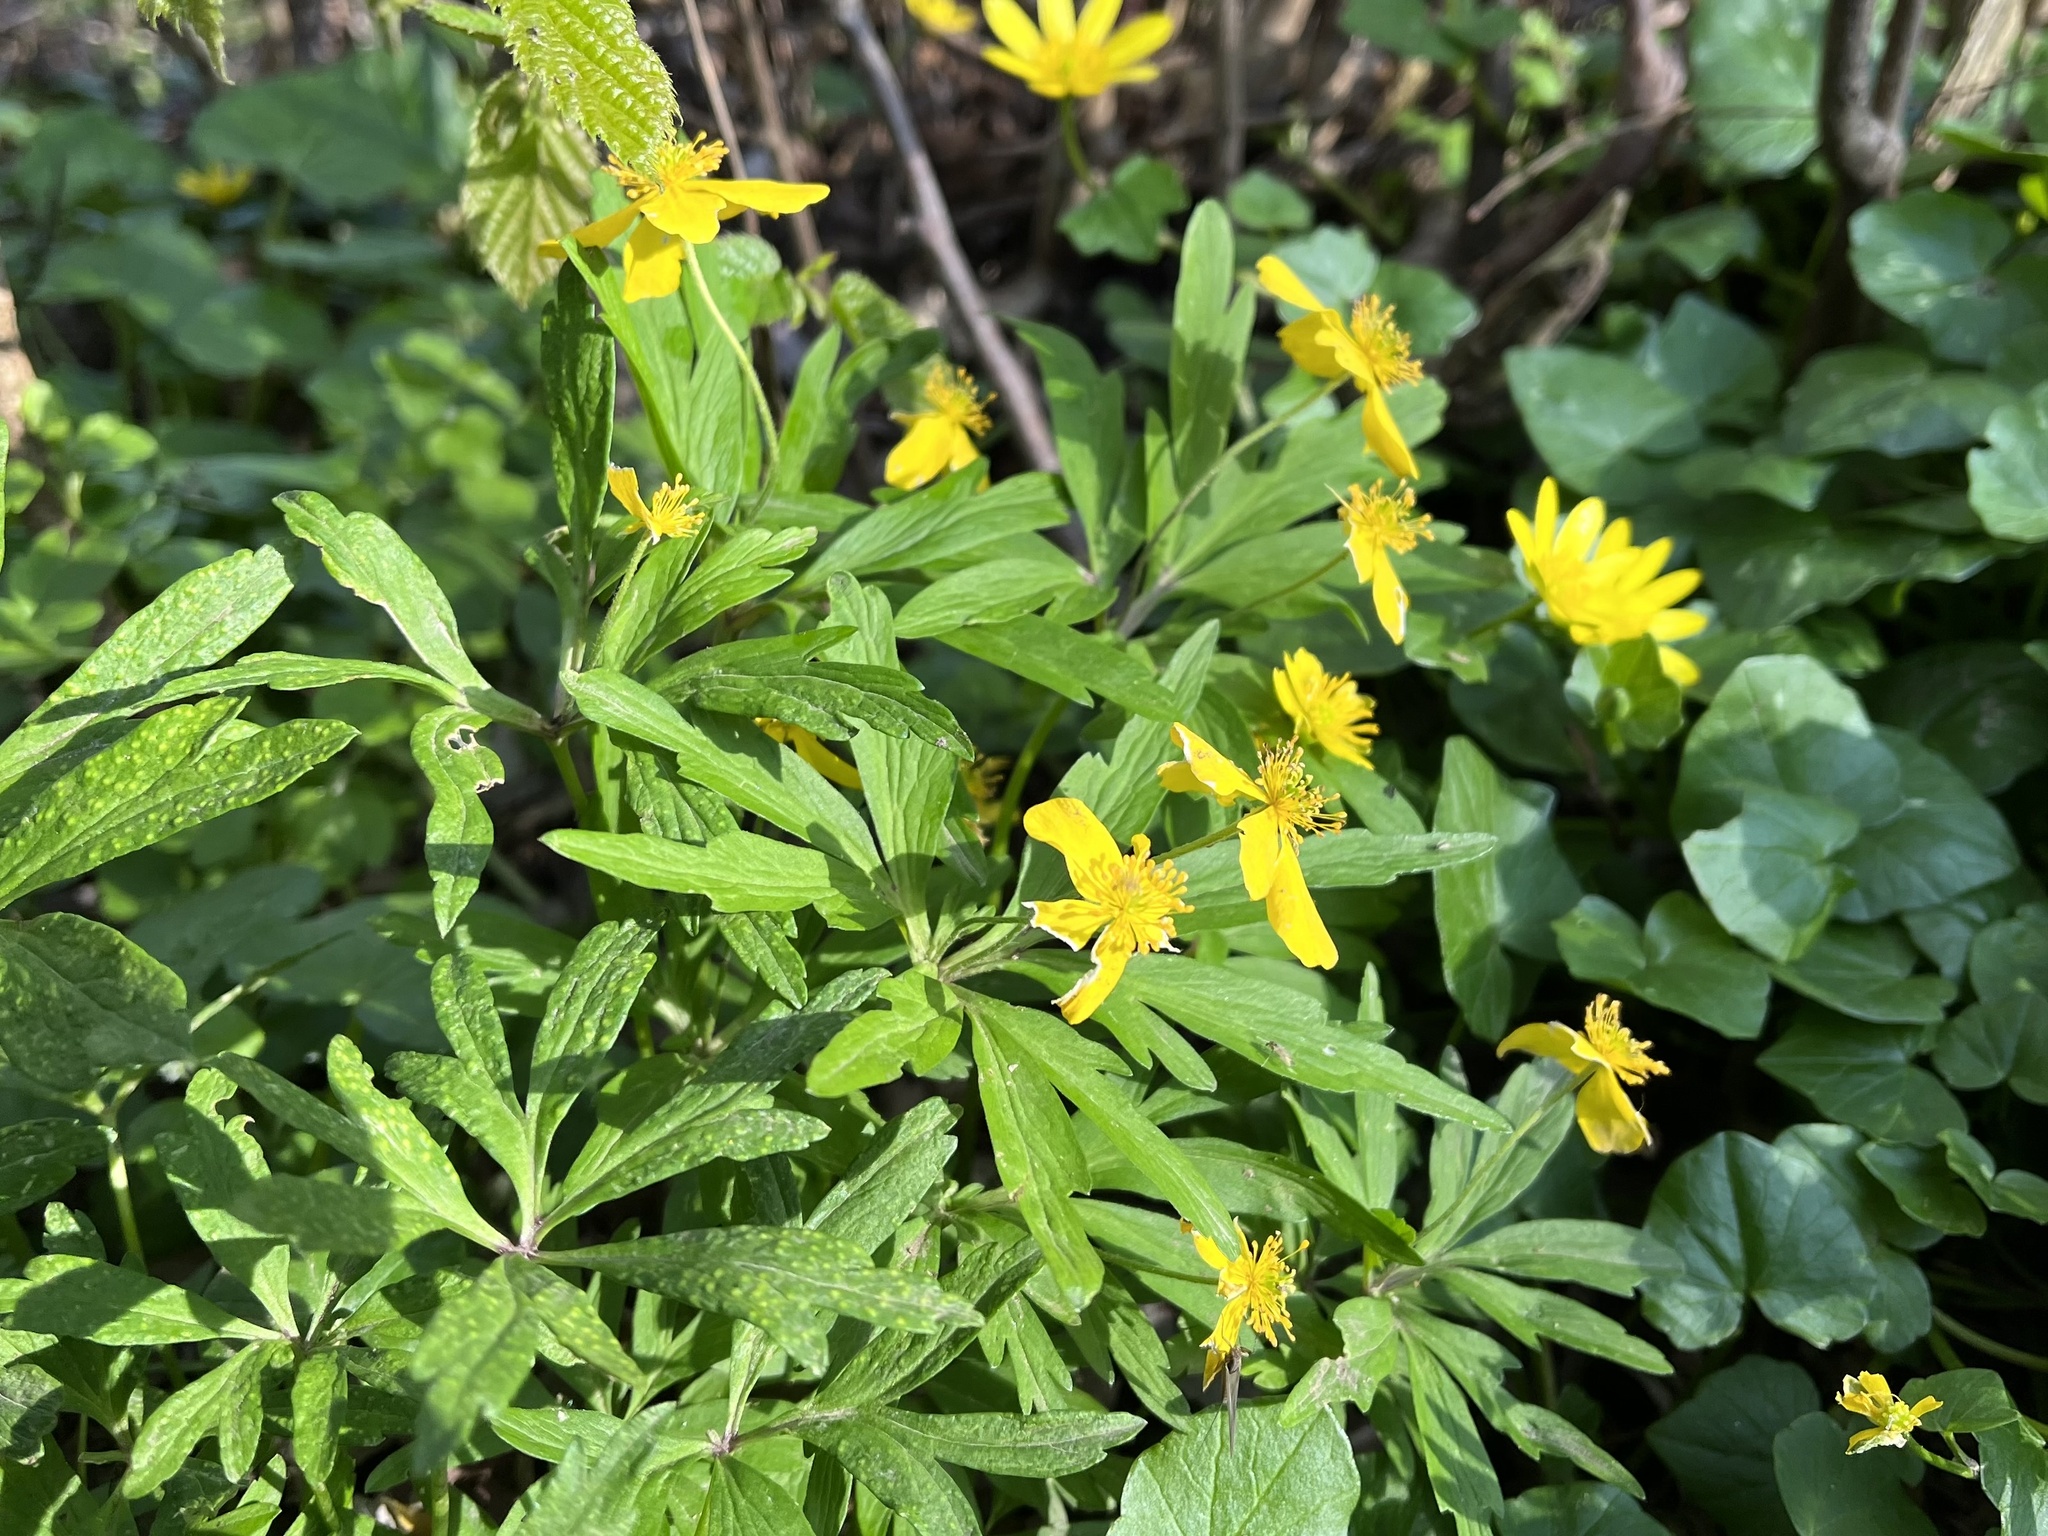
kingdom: Plantae
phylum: Tracheophyta
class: Magnoliopsida
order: Ranunculales
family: Ranunculaceae
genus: Anemone
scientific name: Anemone ranunculoides
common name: Yellow anemone
